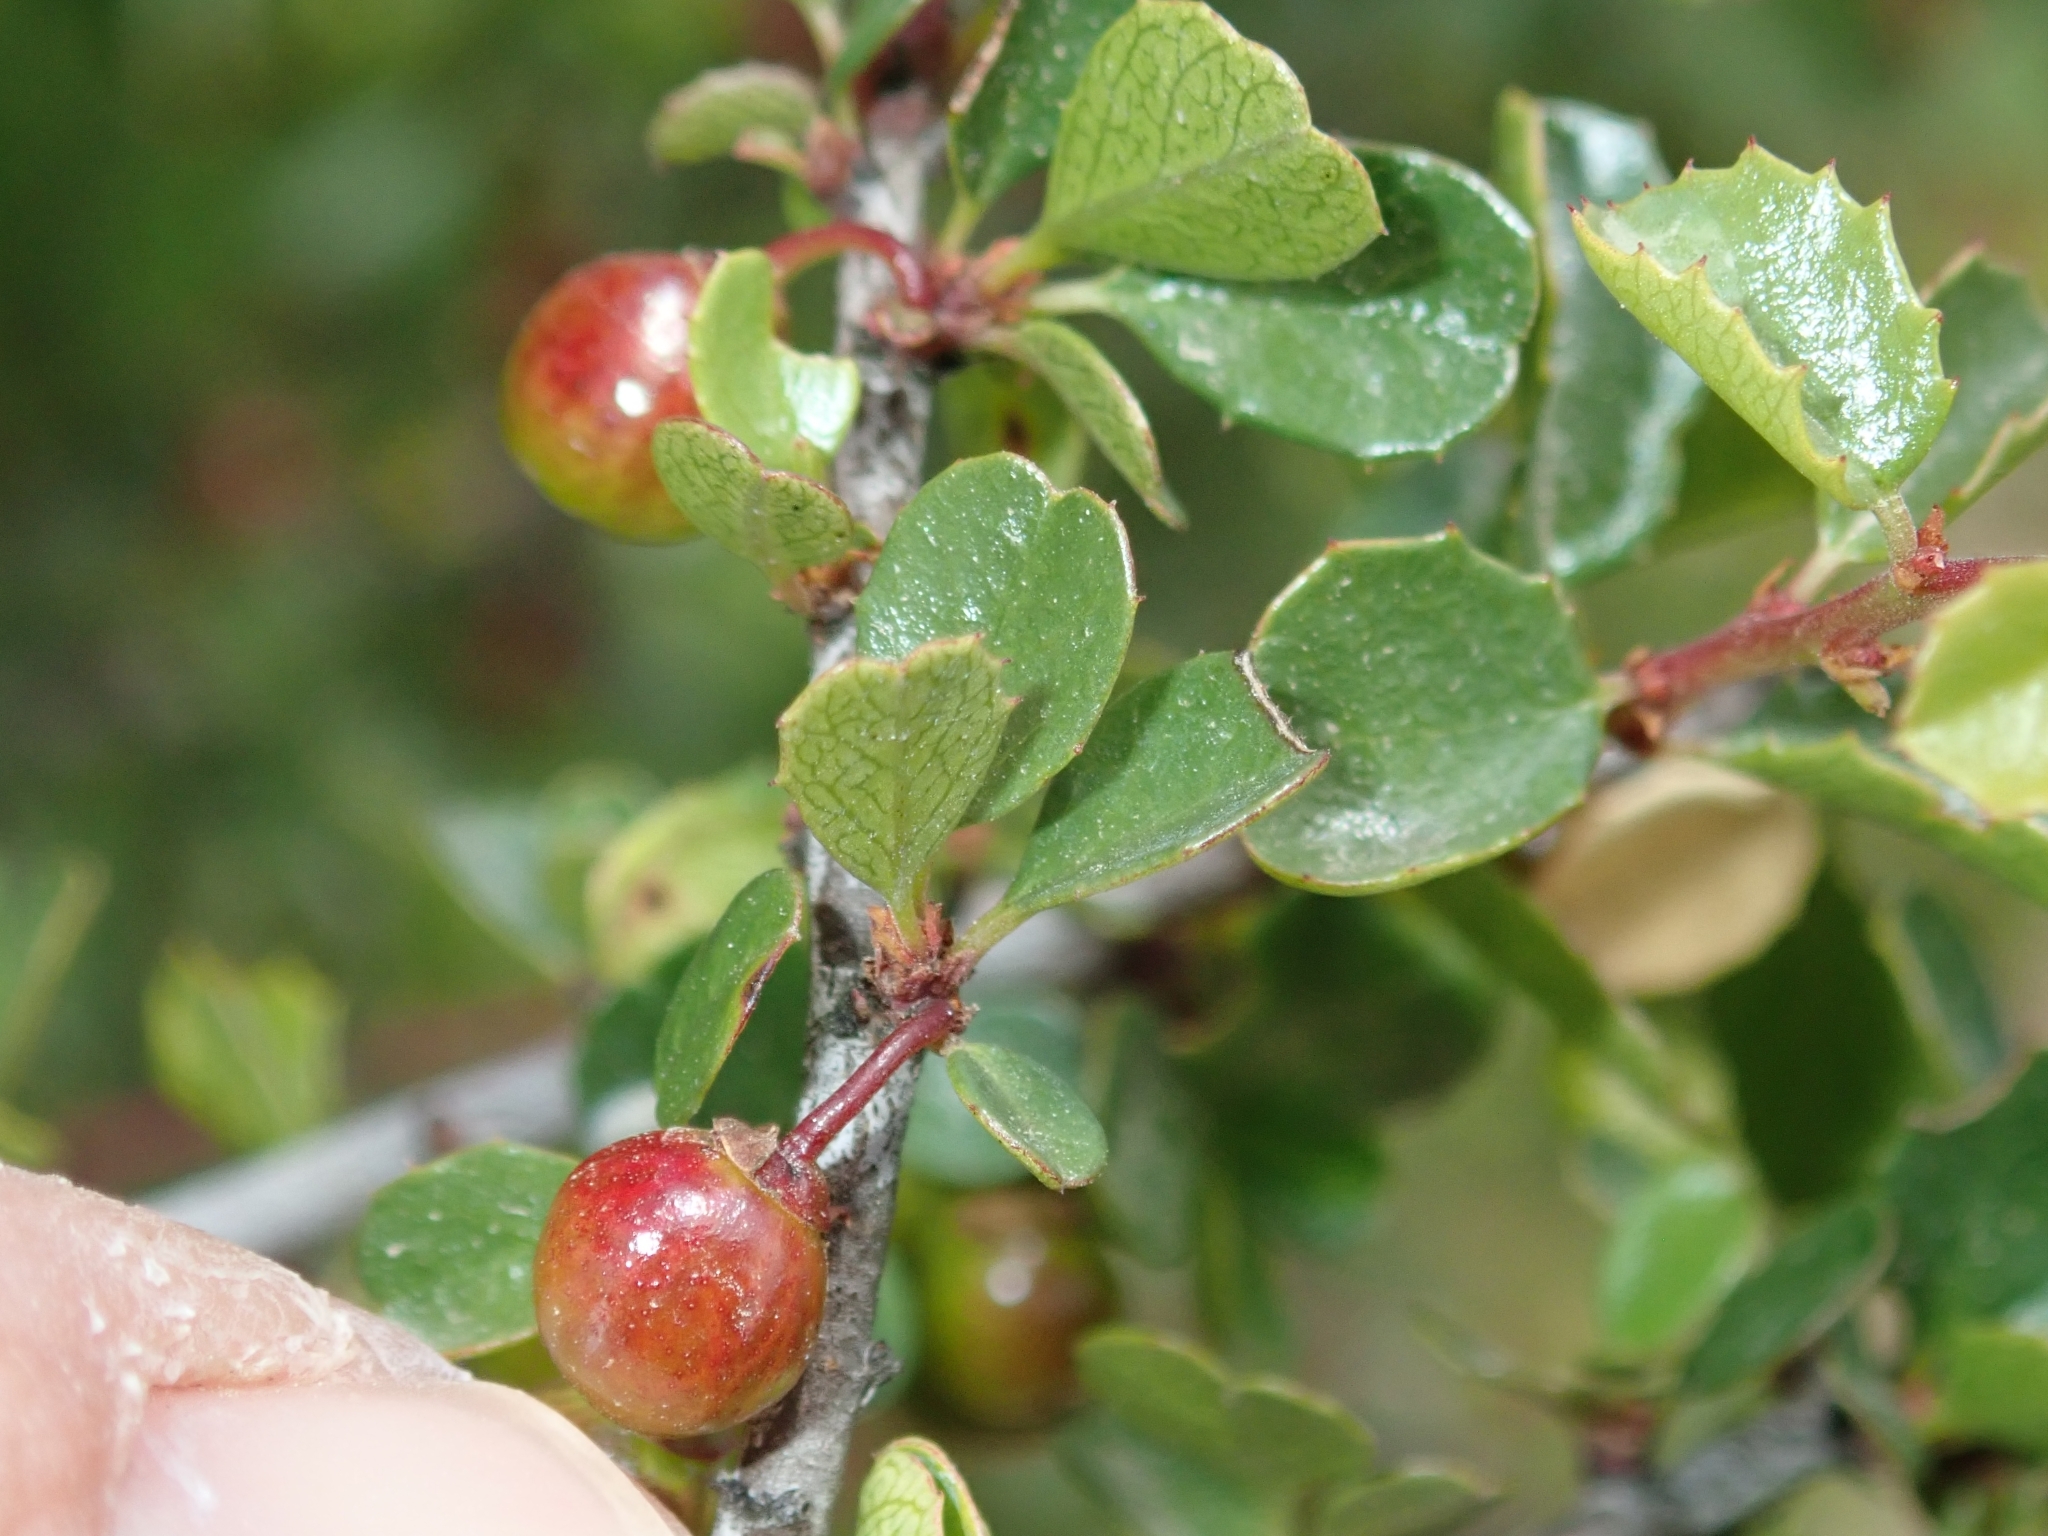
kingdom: Plantae
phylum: Tracheophyta
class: Magnoliopsida
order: Rosales
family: Rhamnaceae
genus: Endotropis
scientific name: Endotropis crocea
